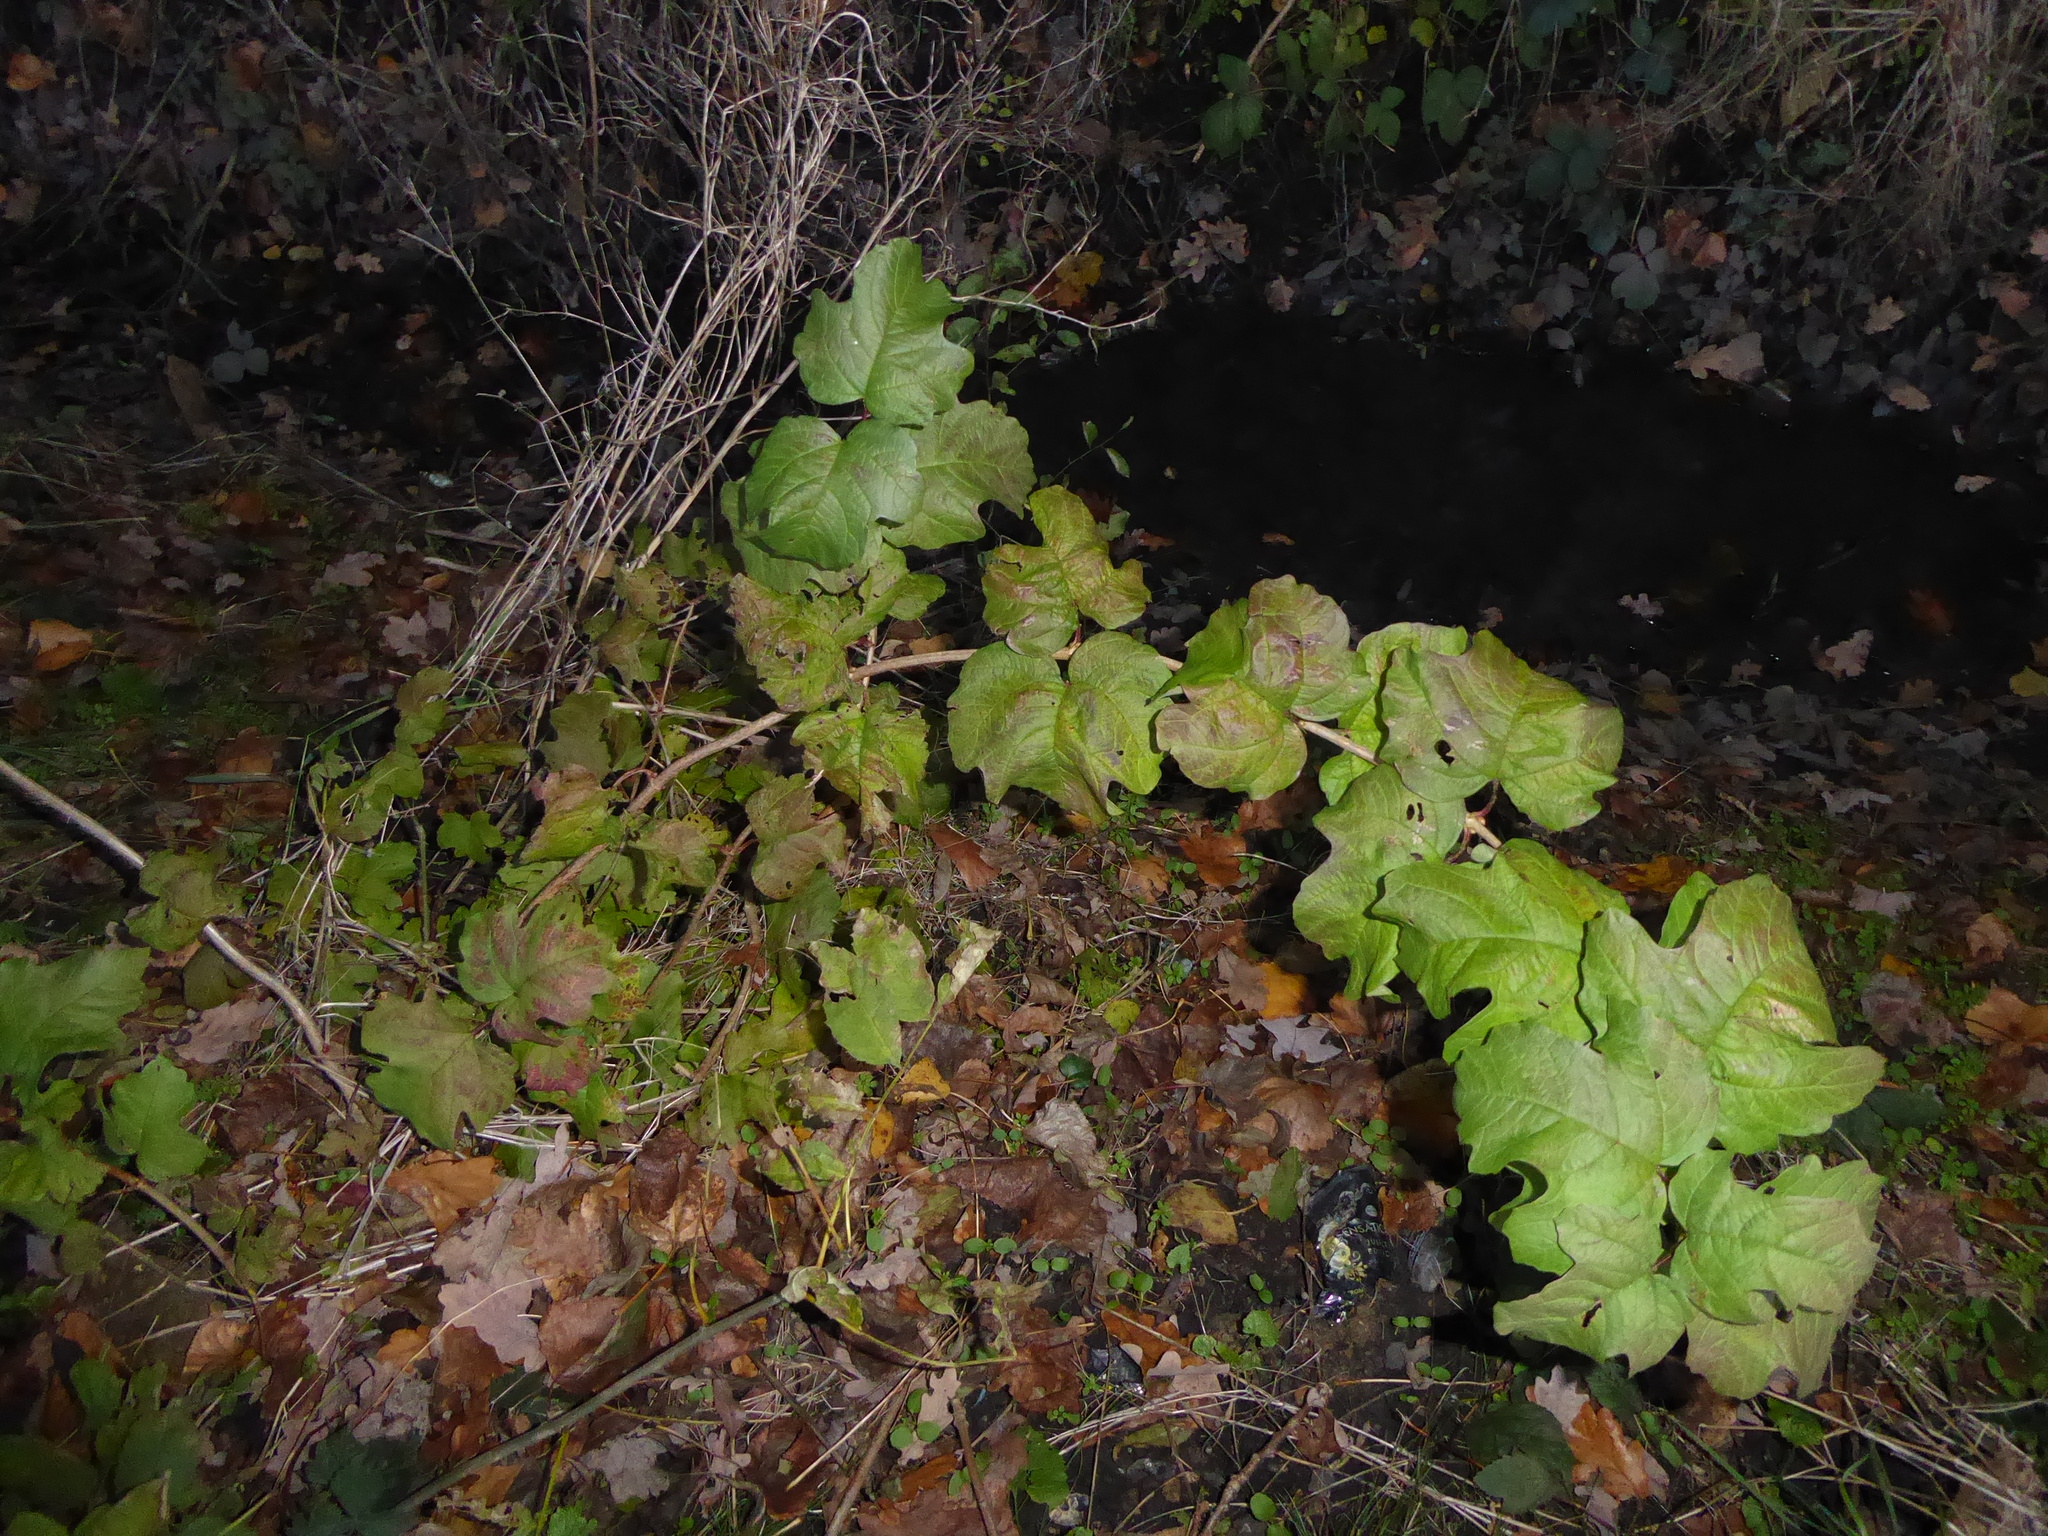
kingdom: Plantae
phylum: Tracheophyta
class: Magnoliopsida
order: Dipsacales
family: Viburnaceae
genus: Viburnum
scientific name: Viburnum opulus
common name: Guelder-rose
